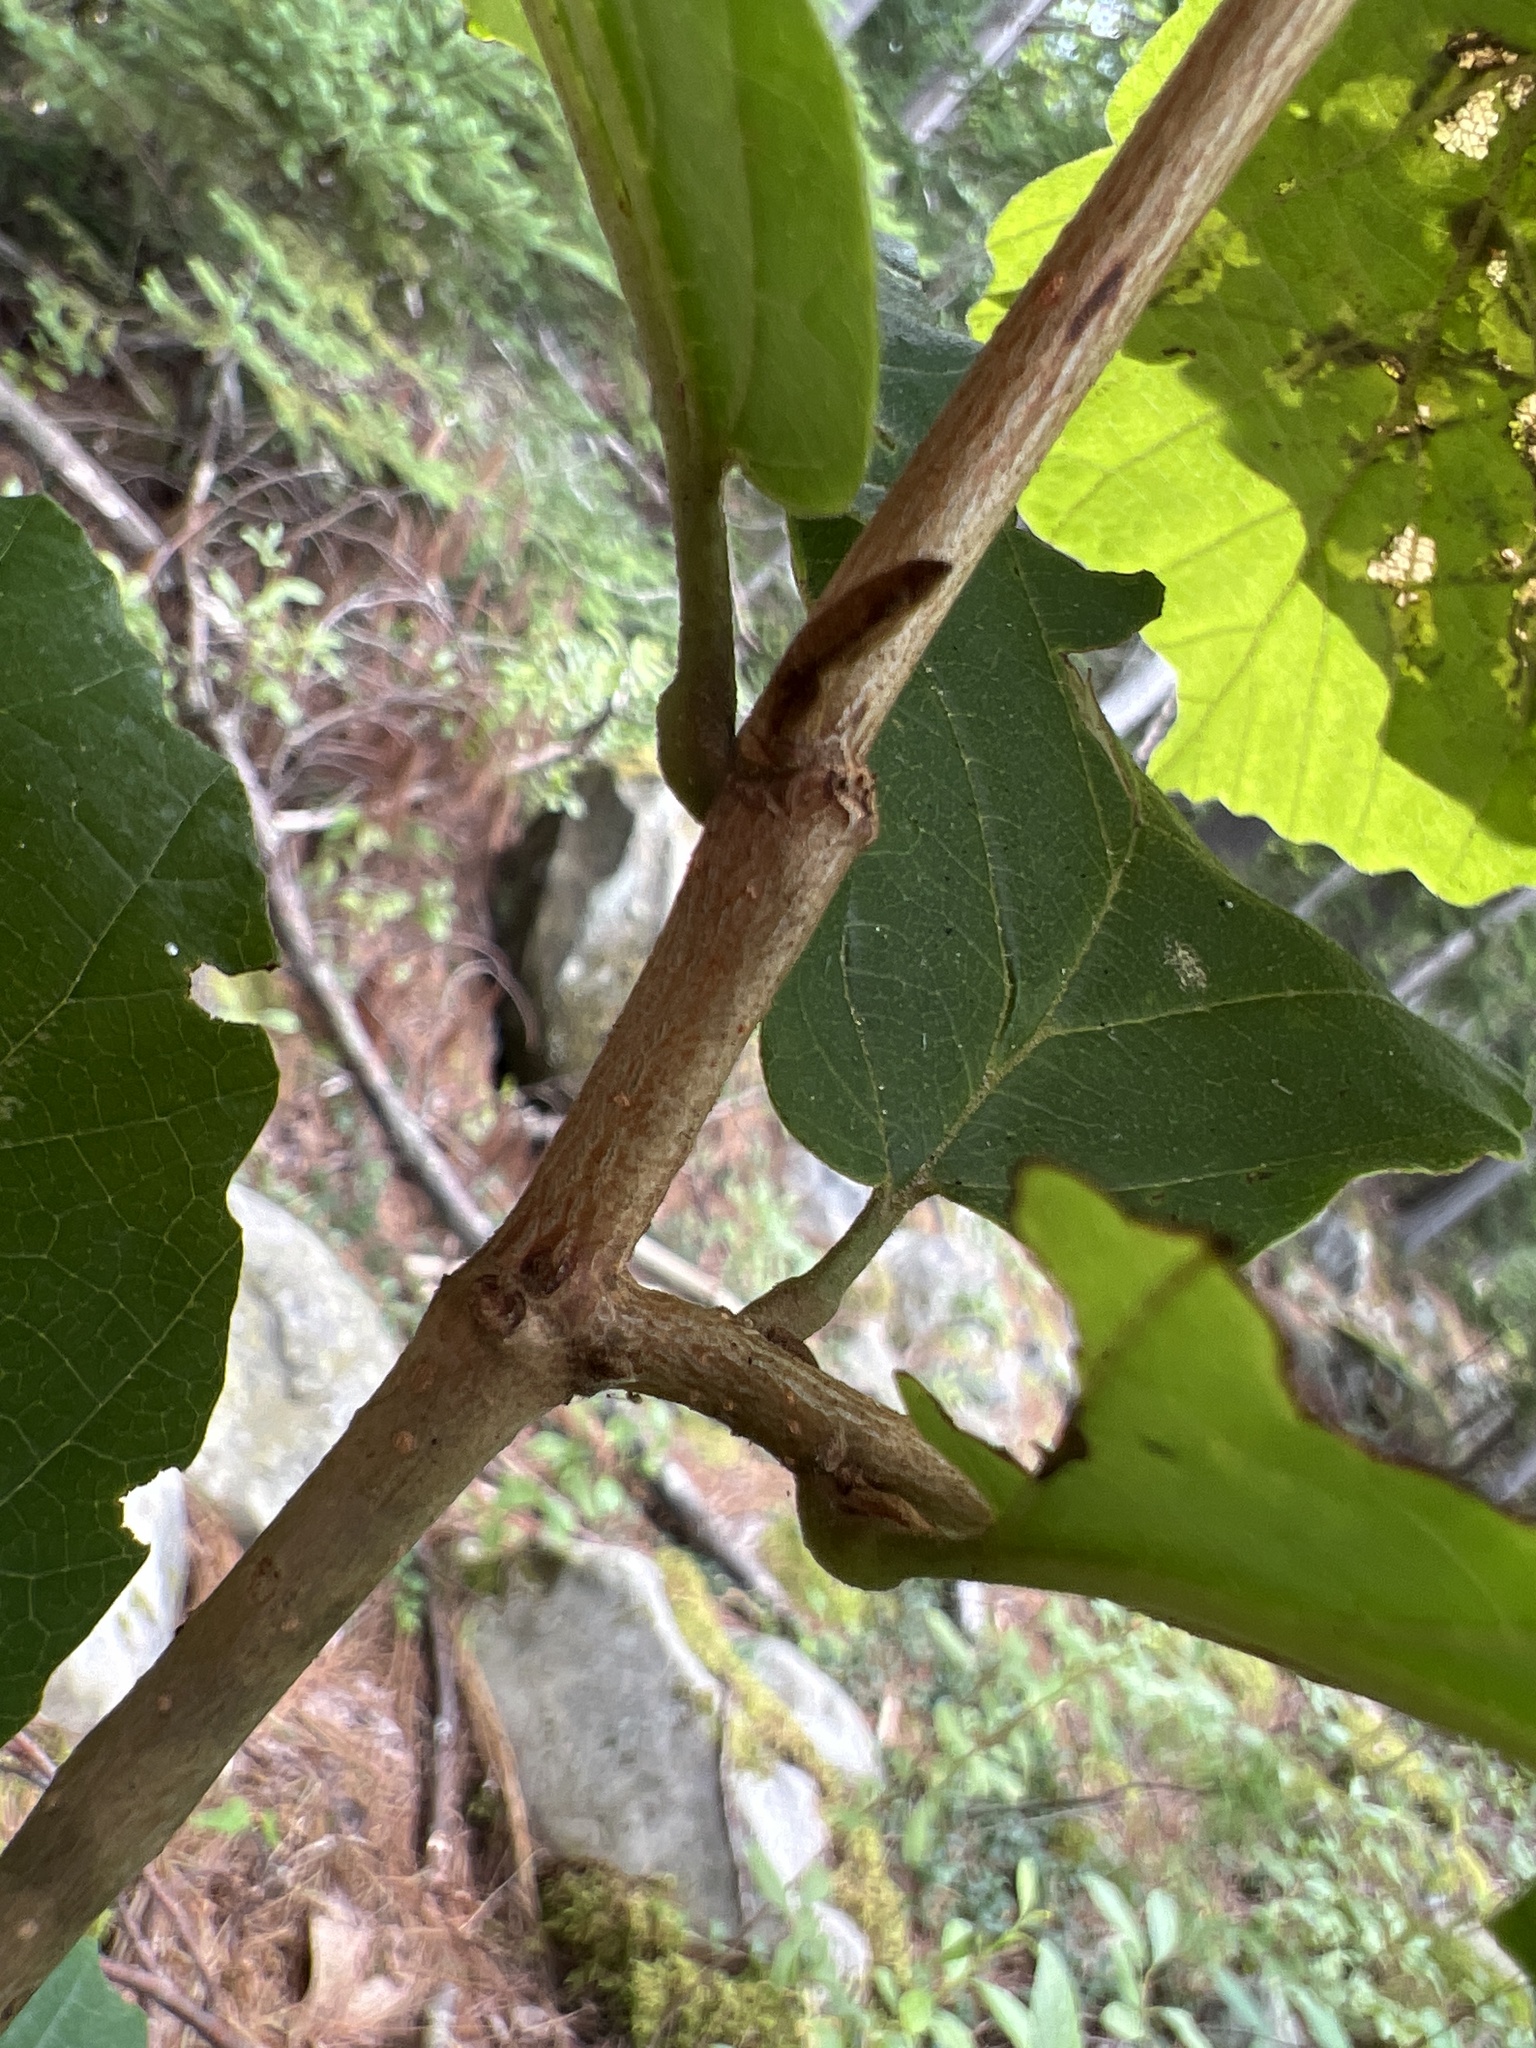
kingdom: Plantae
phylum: Tracheophyta
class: Magnoliopsida
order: Saxifragales
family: Hamamelidaceae
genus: Hamamelis
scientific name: Hamamelis virginiana
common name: Witch-hazel
